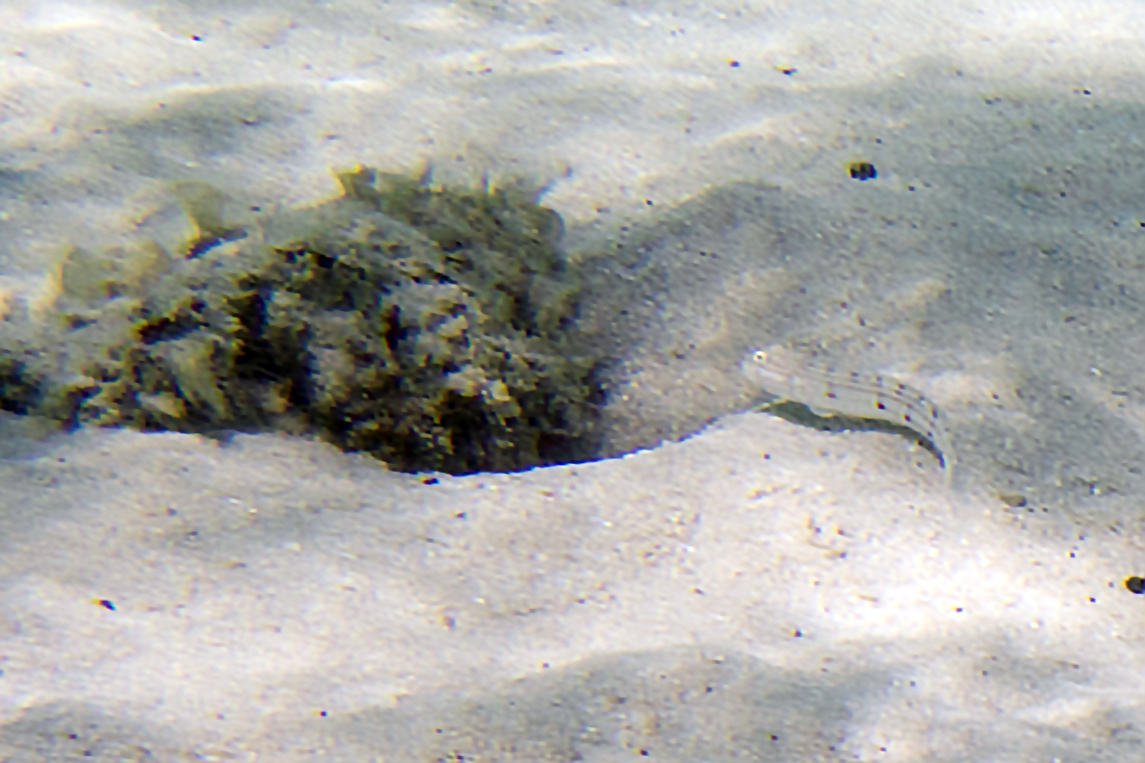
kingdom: Animalia
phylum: Chordata
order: Perciformes
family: Gobiidae
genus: Valenciennea
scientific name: Valenciennea longipinnis
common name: Longfinned goby
